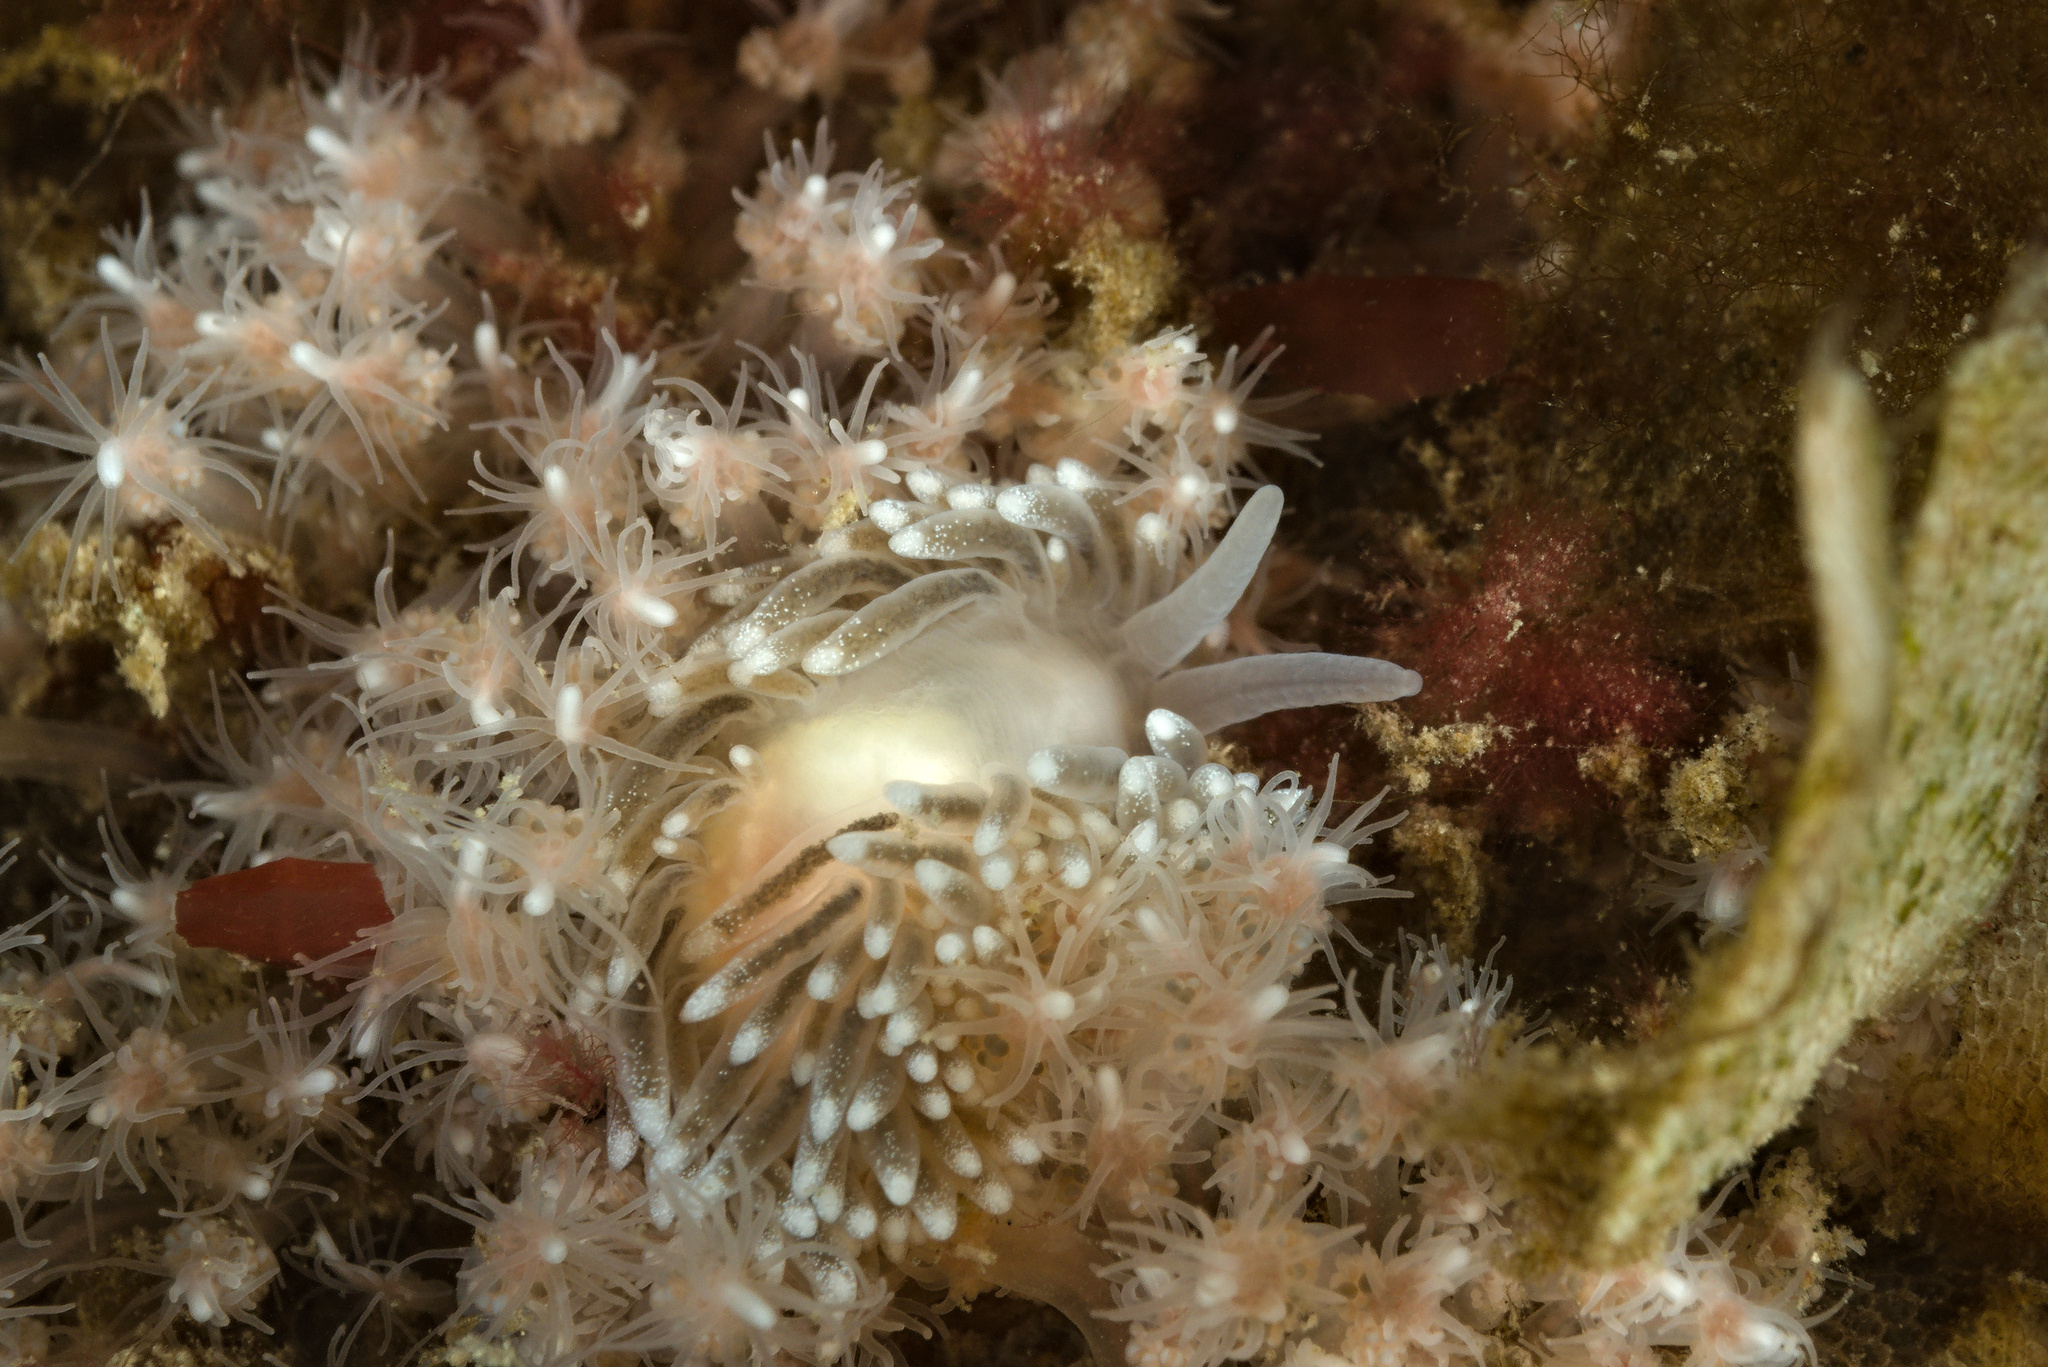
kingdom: Animalia
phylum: Mollusca
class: Gastropoda
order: Nudibranchia
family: Cuthonidae
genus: Cuthona
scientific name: Cuthona nana
